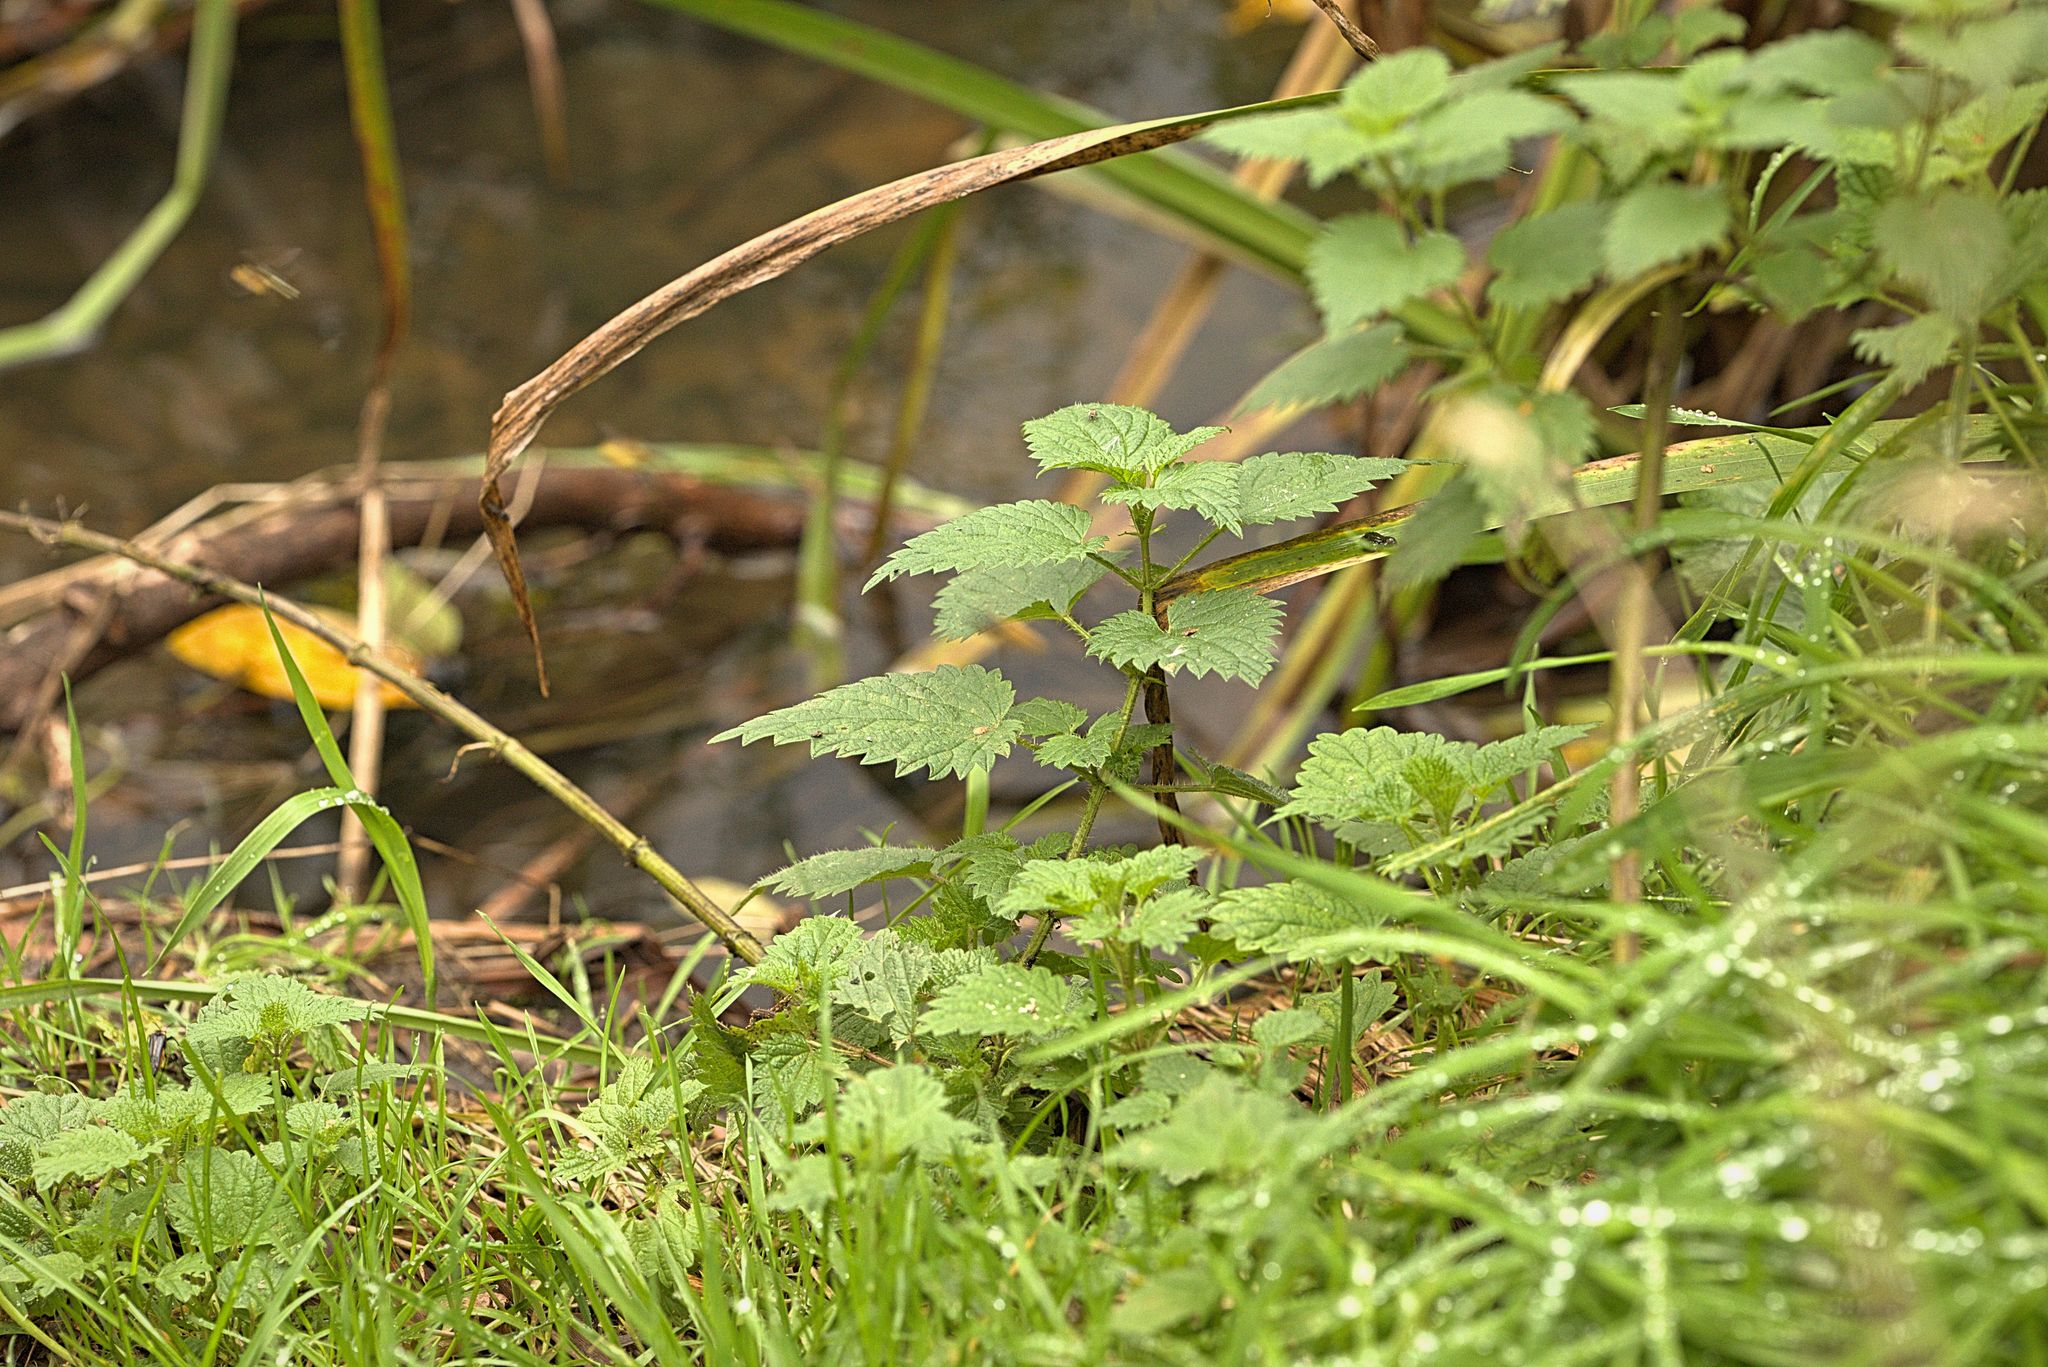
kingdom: Plantae
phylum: Tracheophyta
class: Magnoliopsida
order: Rosales
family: Urticaceae
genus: Urtica
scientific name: Urtica dioica
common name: Common nettle
